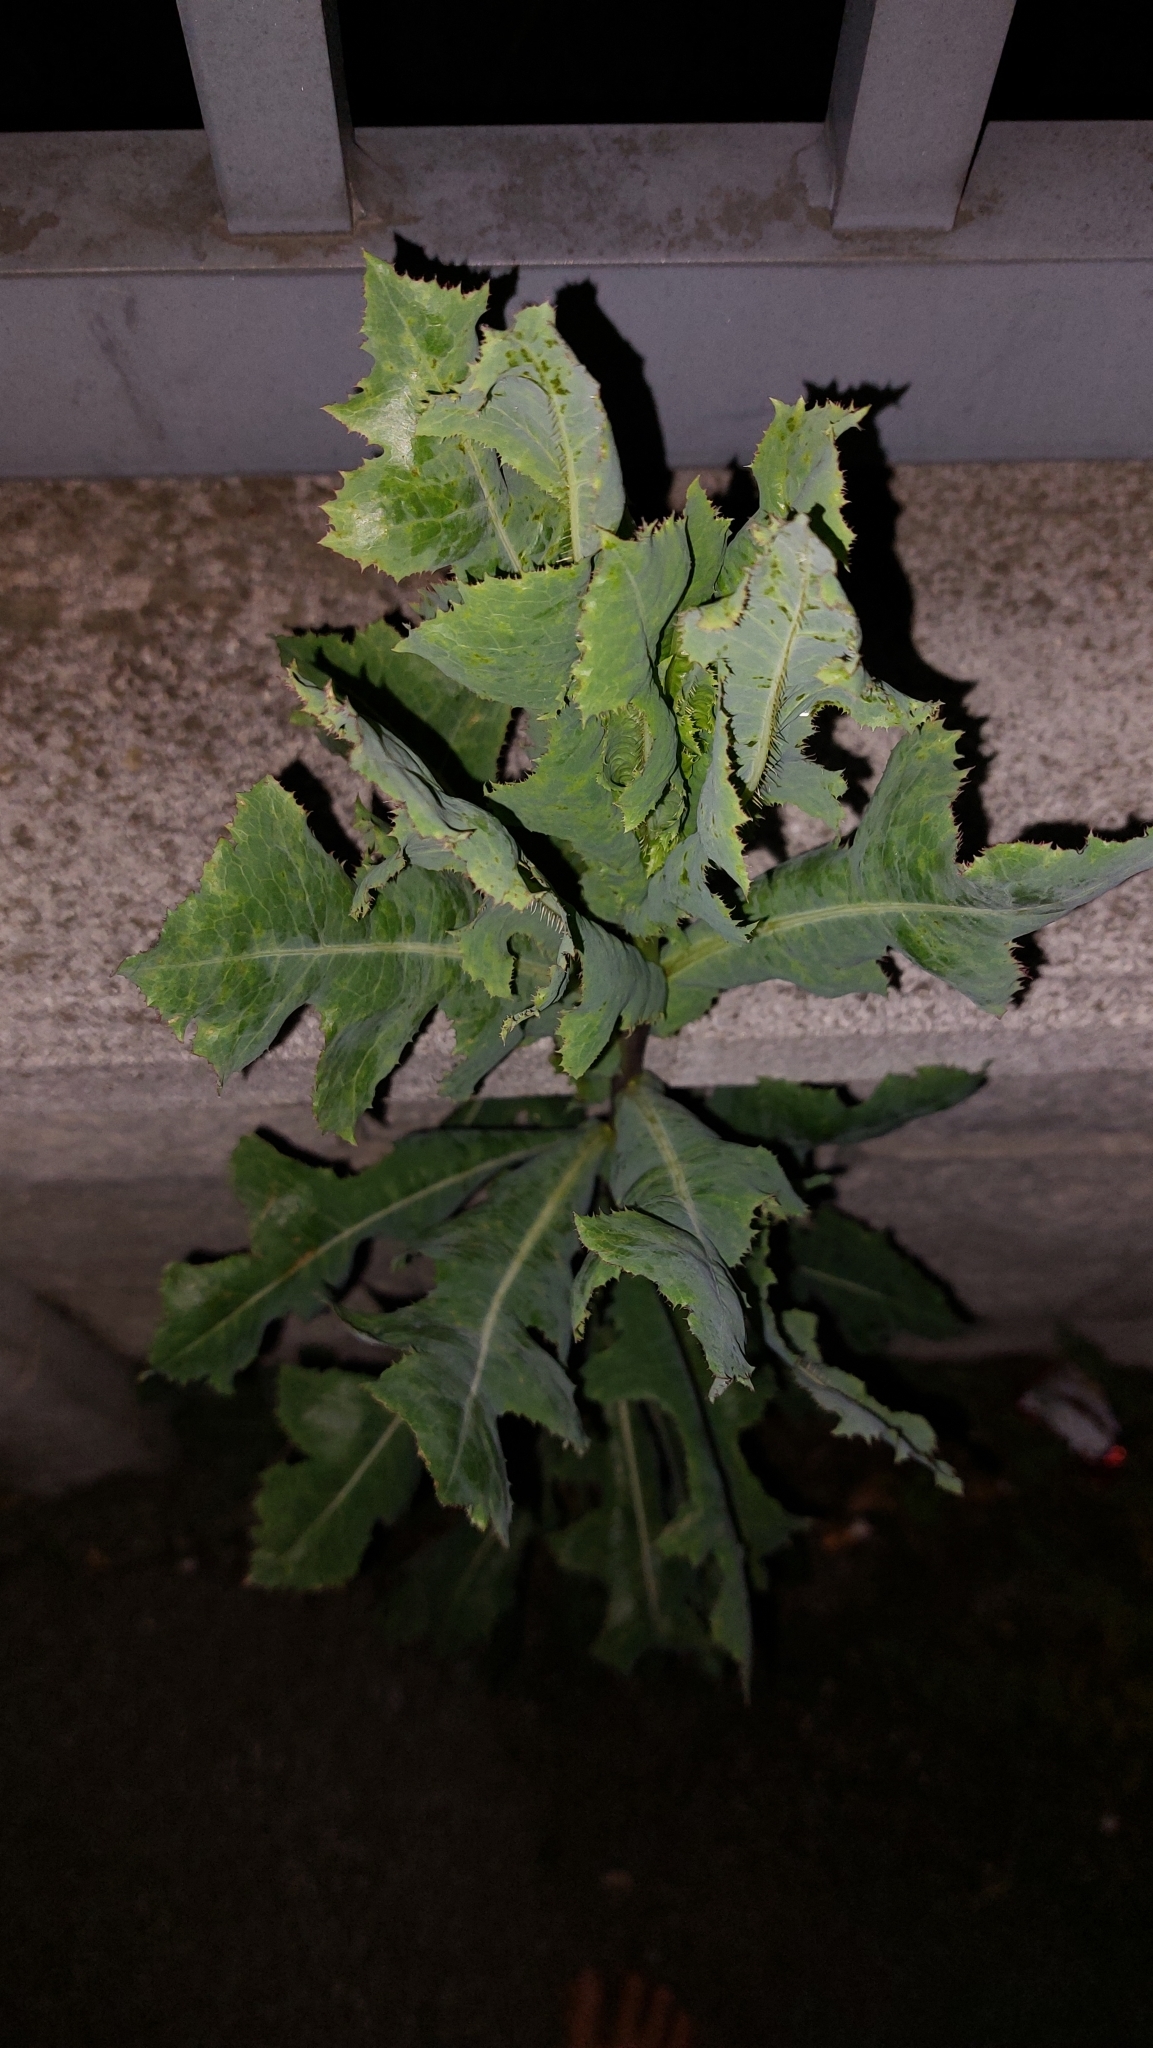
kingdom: Plantae
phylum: Tracheophyta
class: Magnoliopsida
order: Asterales
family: Asteraceae
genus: Lactuca
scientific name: Lactuca serriola
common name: Prickly lettuce
